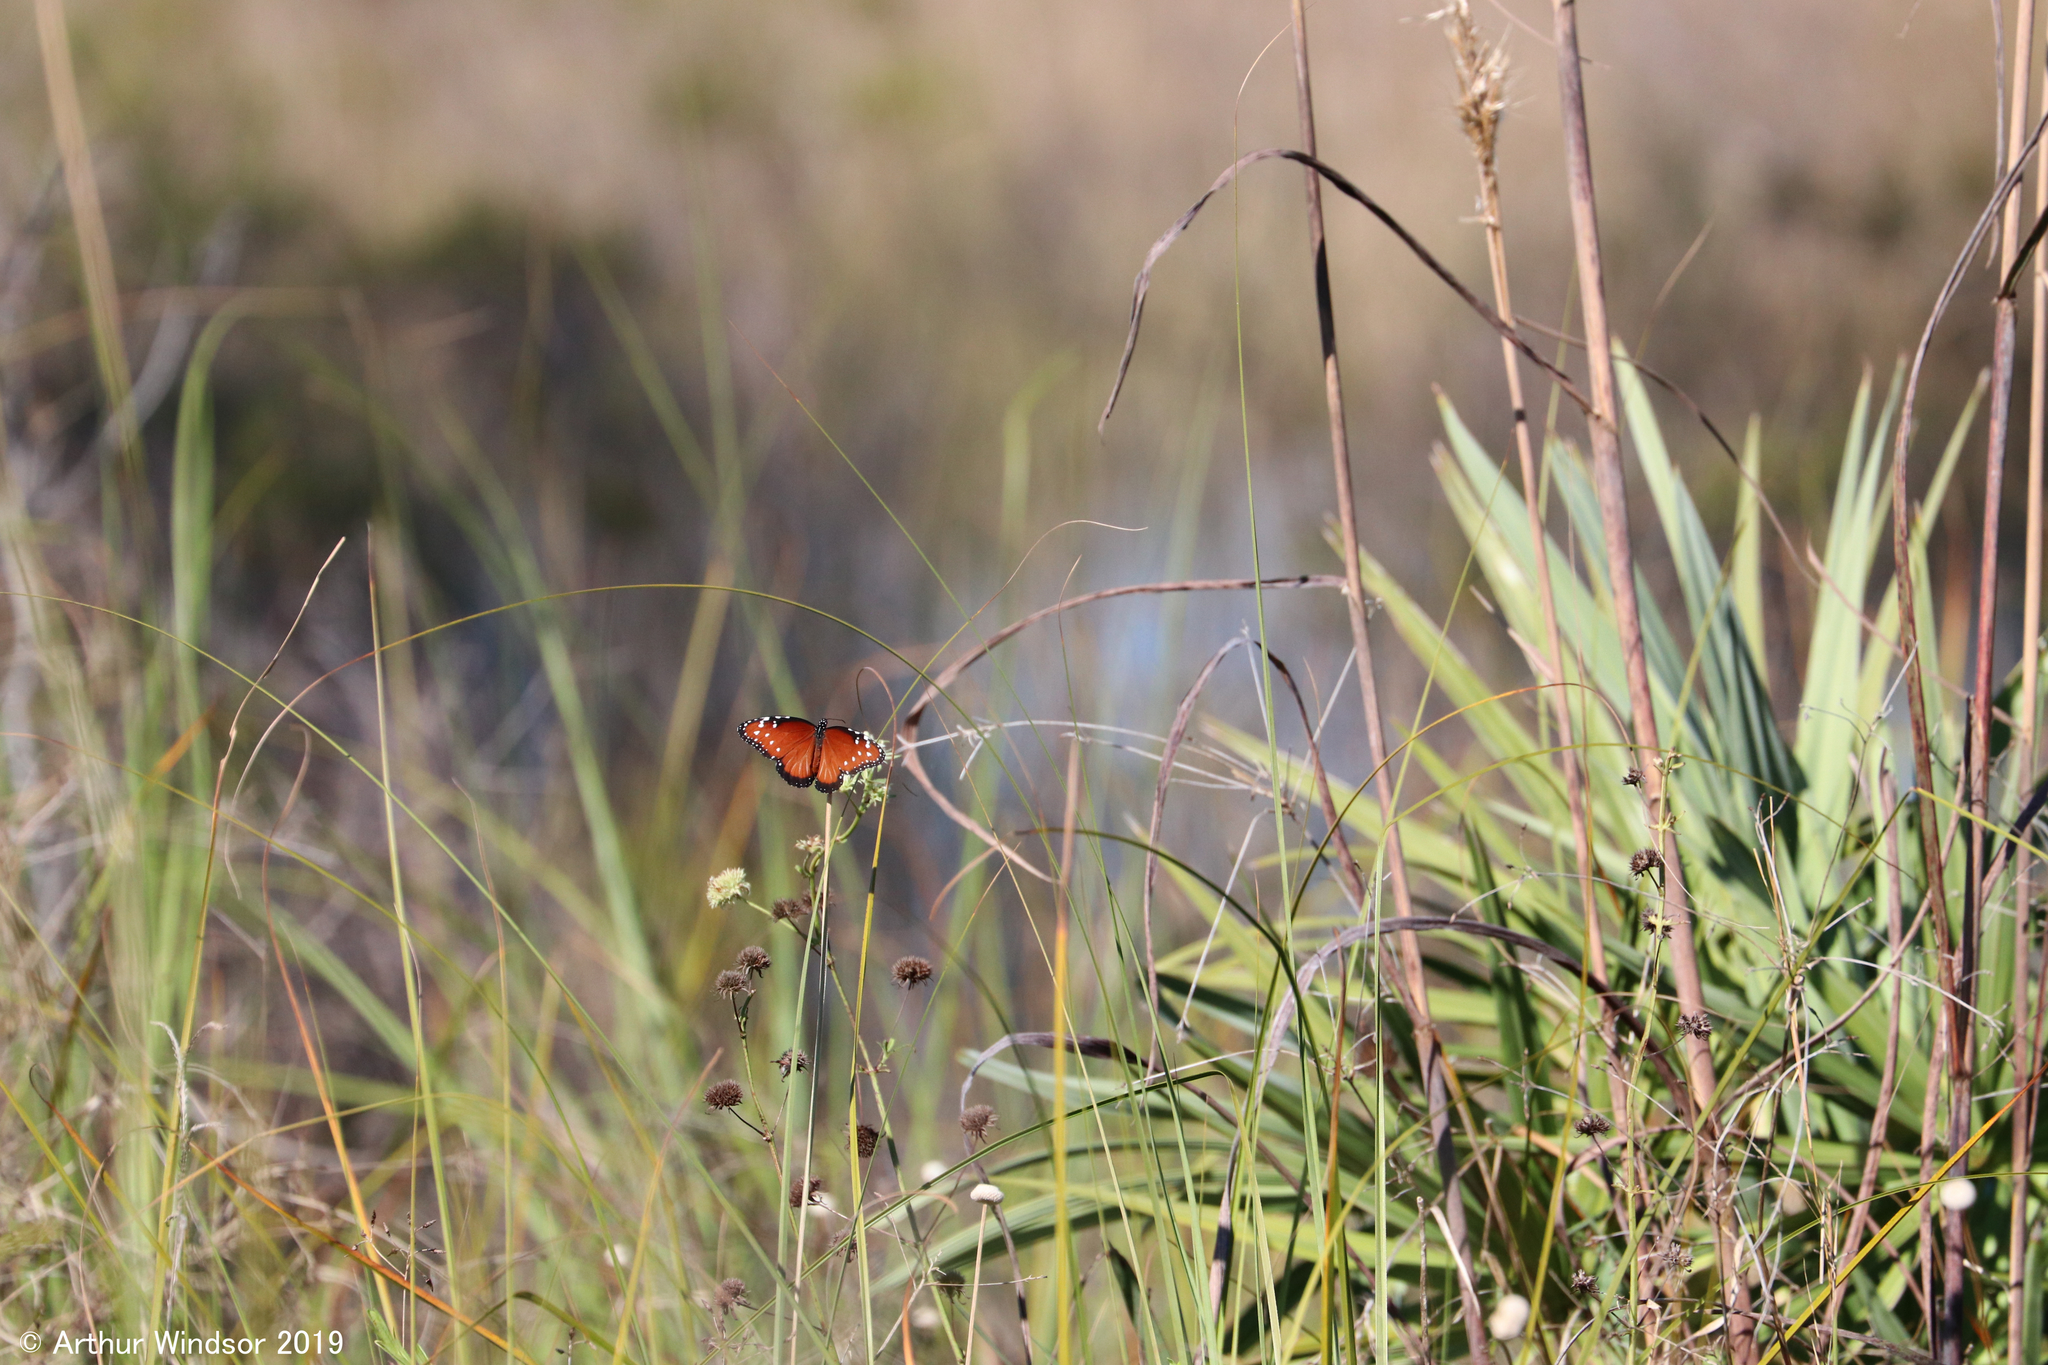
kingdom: Animalia
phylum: Arthropoda
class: Insecta
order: Lepidoptera
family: Nymphalidae
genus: Danaus
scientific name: Danaus gilippus
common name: Queen
